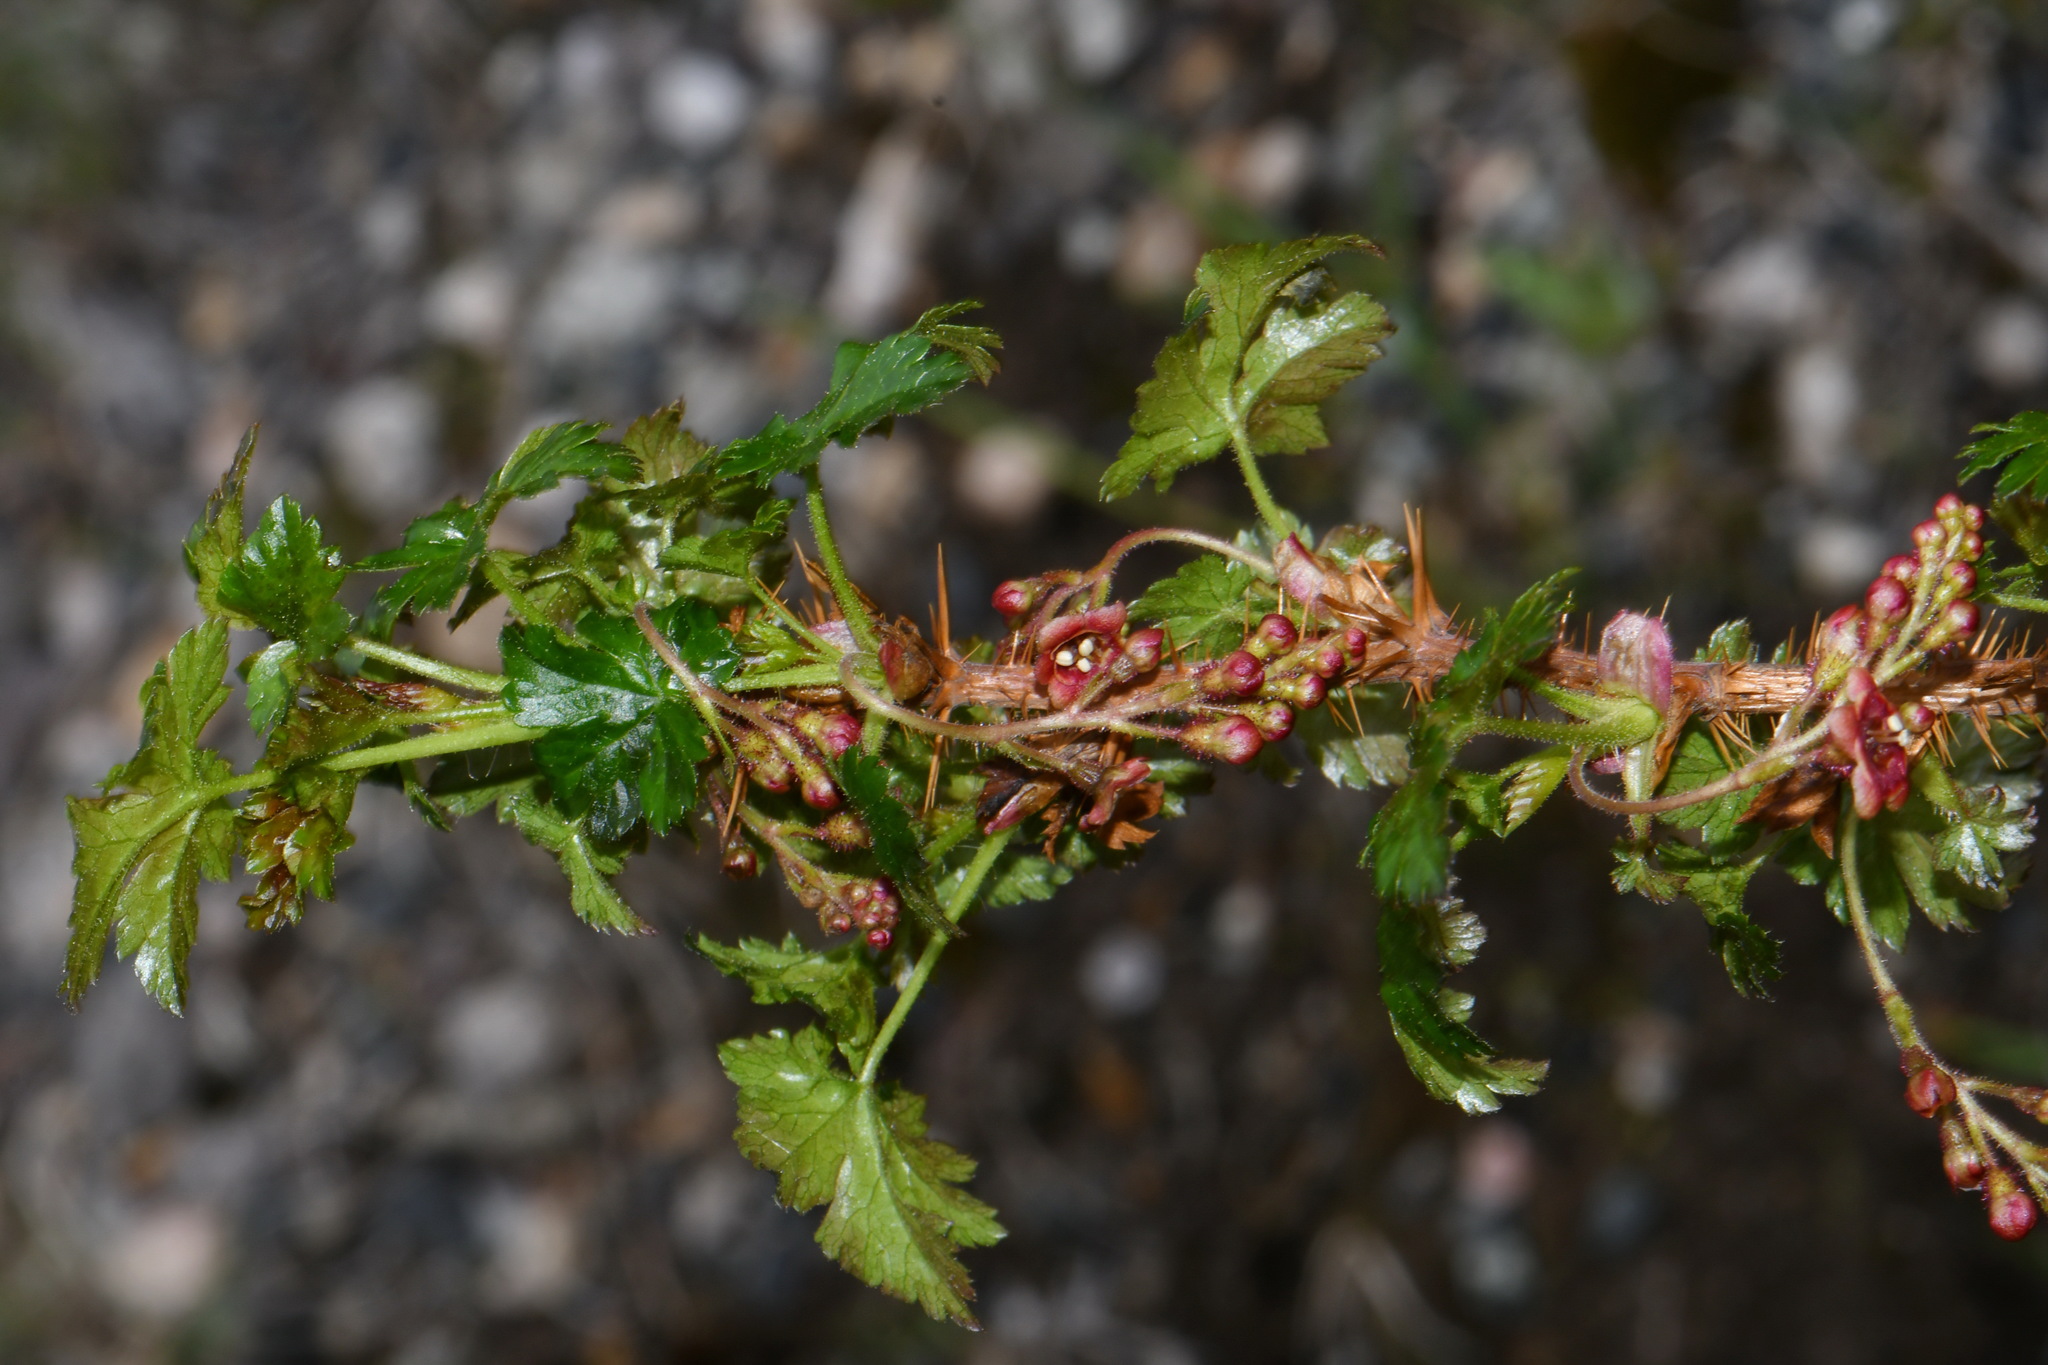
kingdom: Plantae
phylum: Tracheophyta
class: Magnoliopsida
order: Saxifragales
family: Grossulariaceae
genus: Ribes
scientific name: Ribes montigenum
